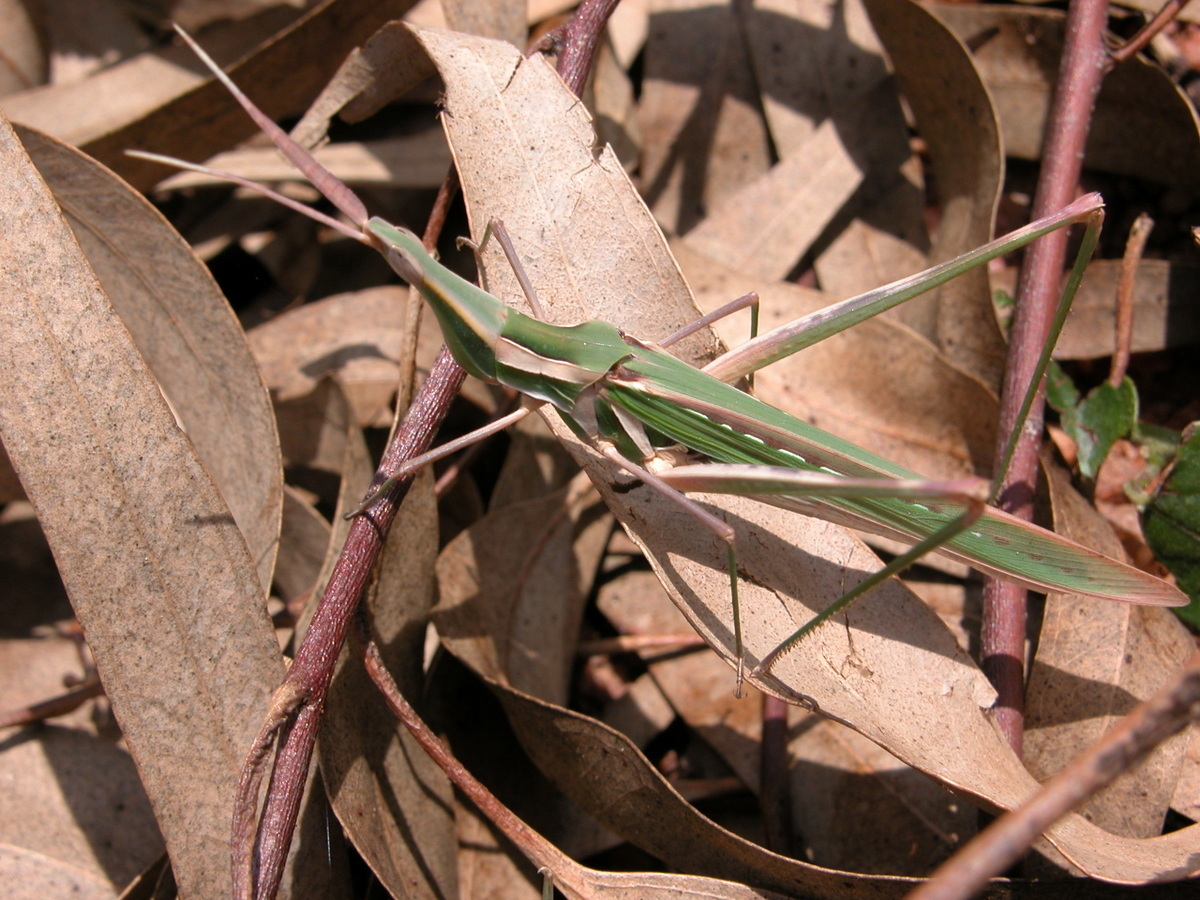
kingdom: Animalia
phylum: Arthropoda
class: Insecta
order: Orthoptera
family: Acrididae
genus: Acrida
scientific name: Acrida exaltata
